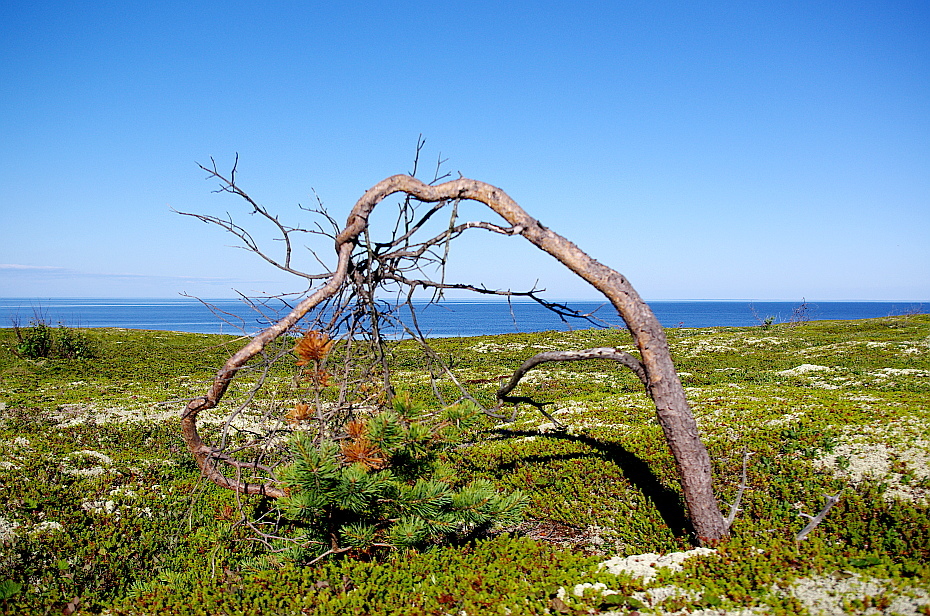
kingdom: Plantae
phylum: Tracheophyta
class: Pinopsida
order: Pinales
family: Pinaceae
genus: Pinus
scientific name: Pinus sylvestris
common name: Scots pine
